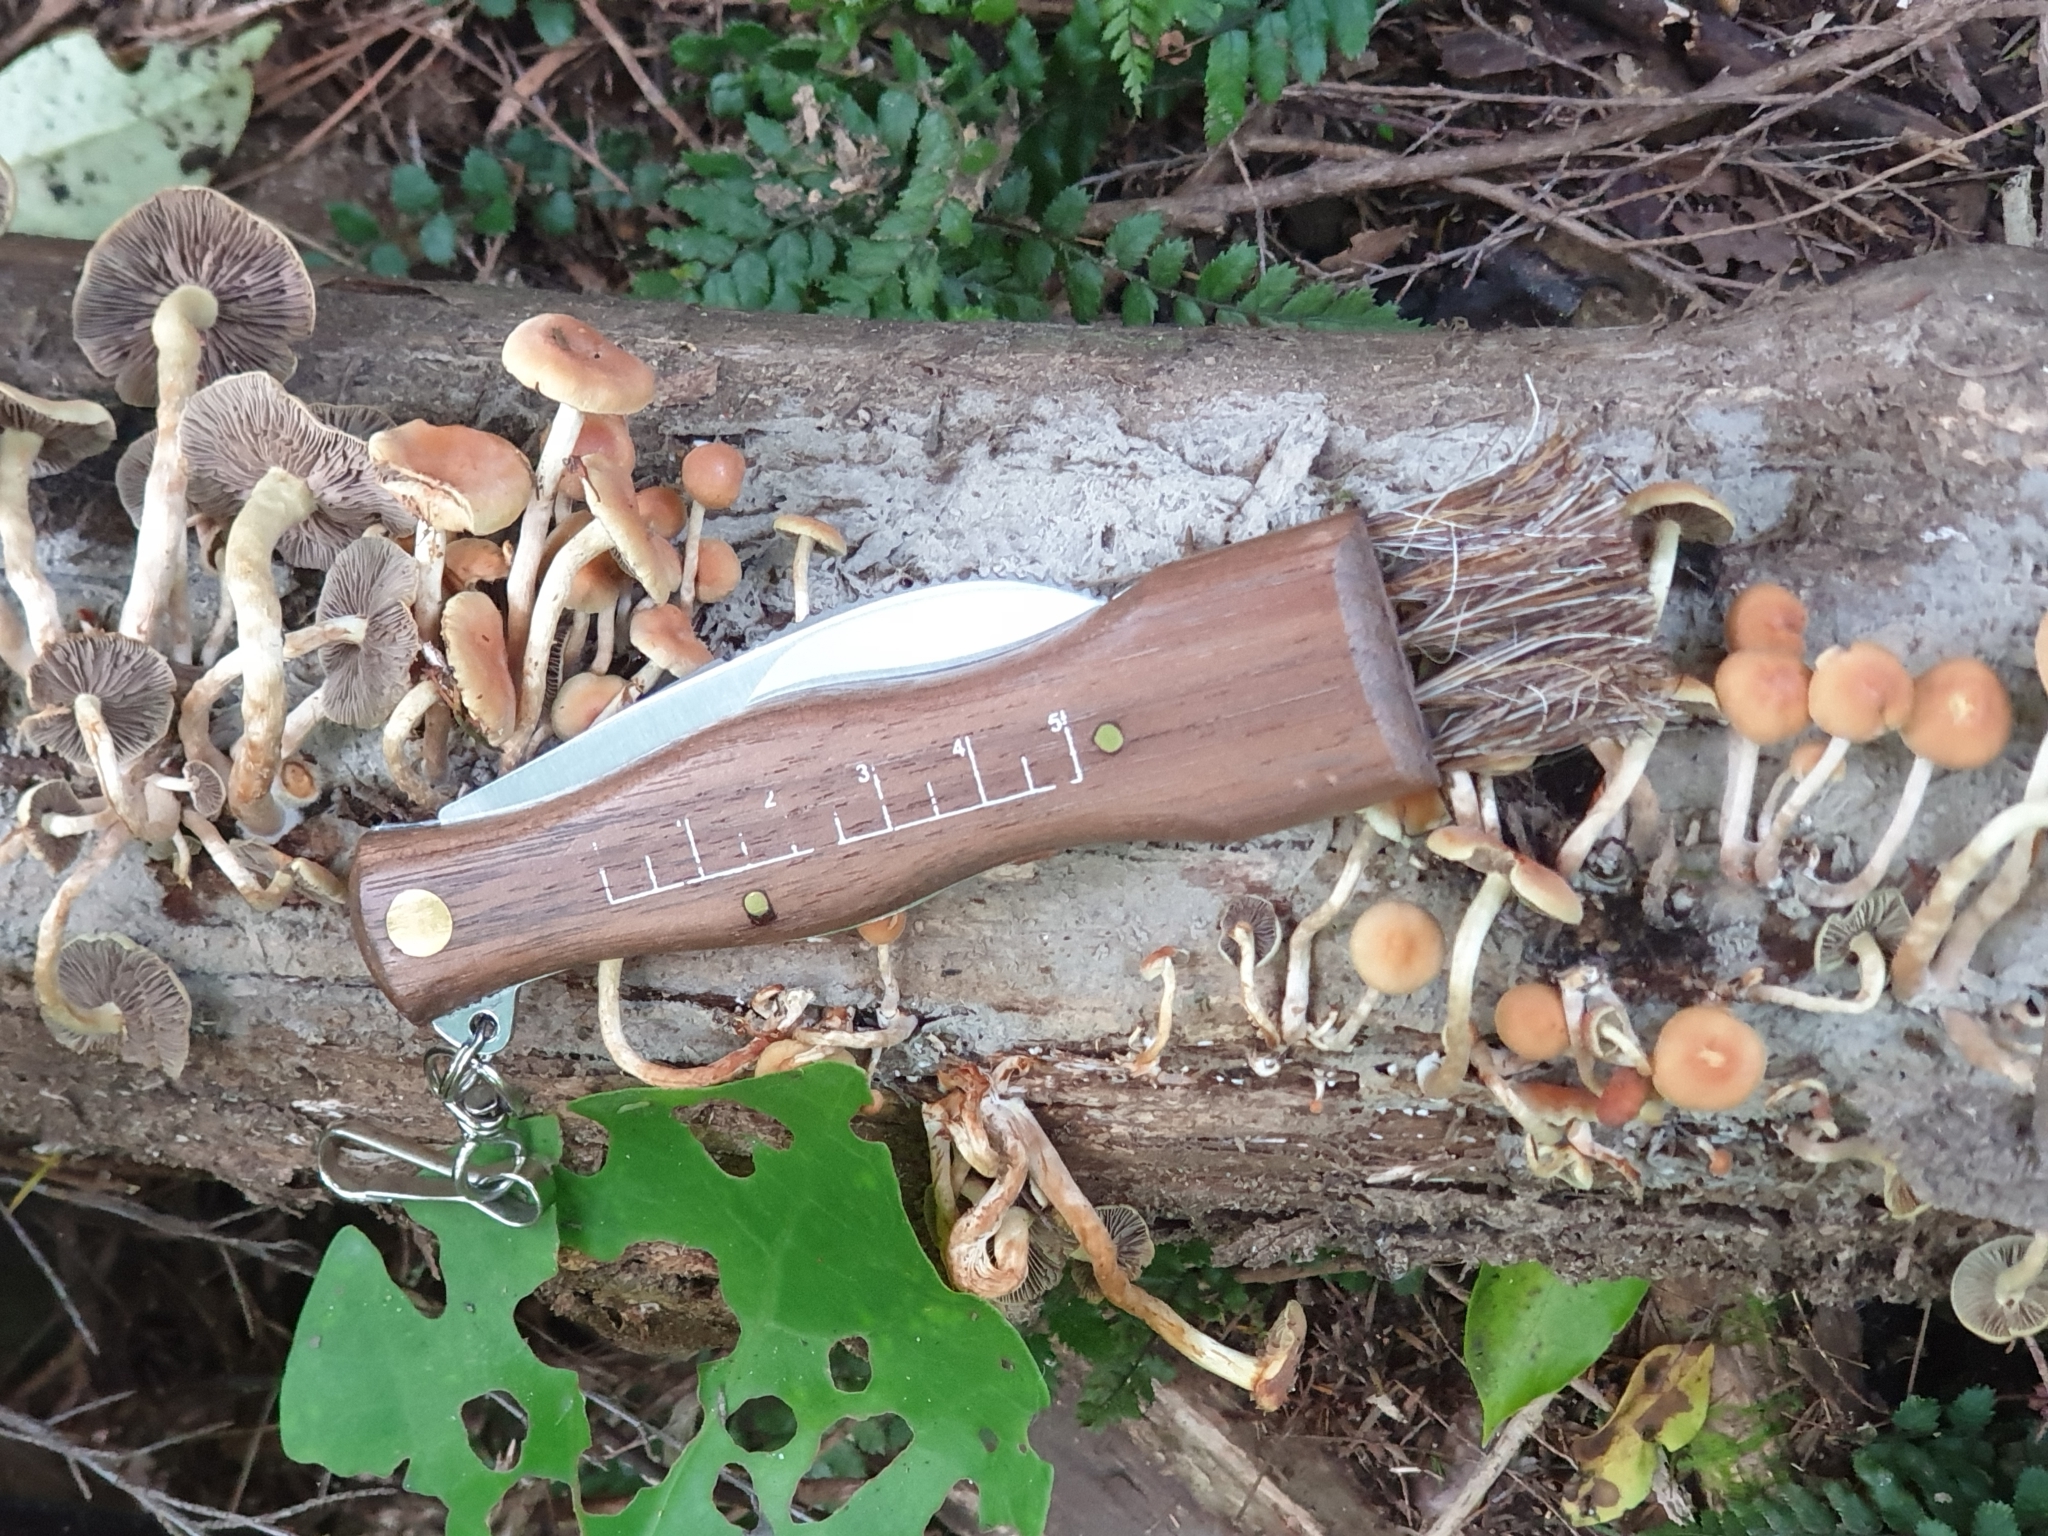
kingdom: Fungi
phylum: Basidiomycota
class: Agaricomycetes
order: Agaricales
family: Strophariaceae
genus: Hypholoma
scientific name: Hypholoma acutum
